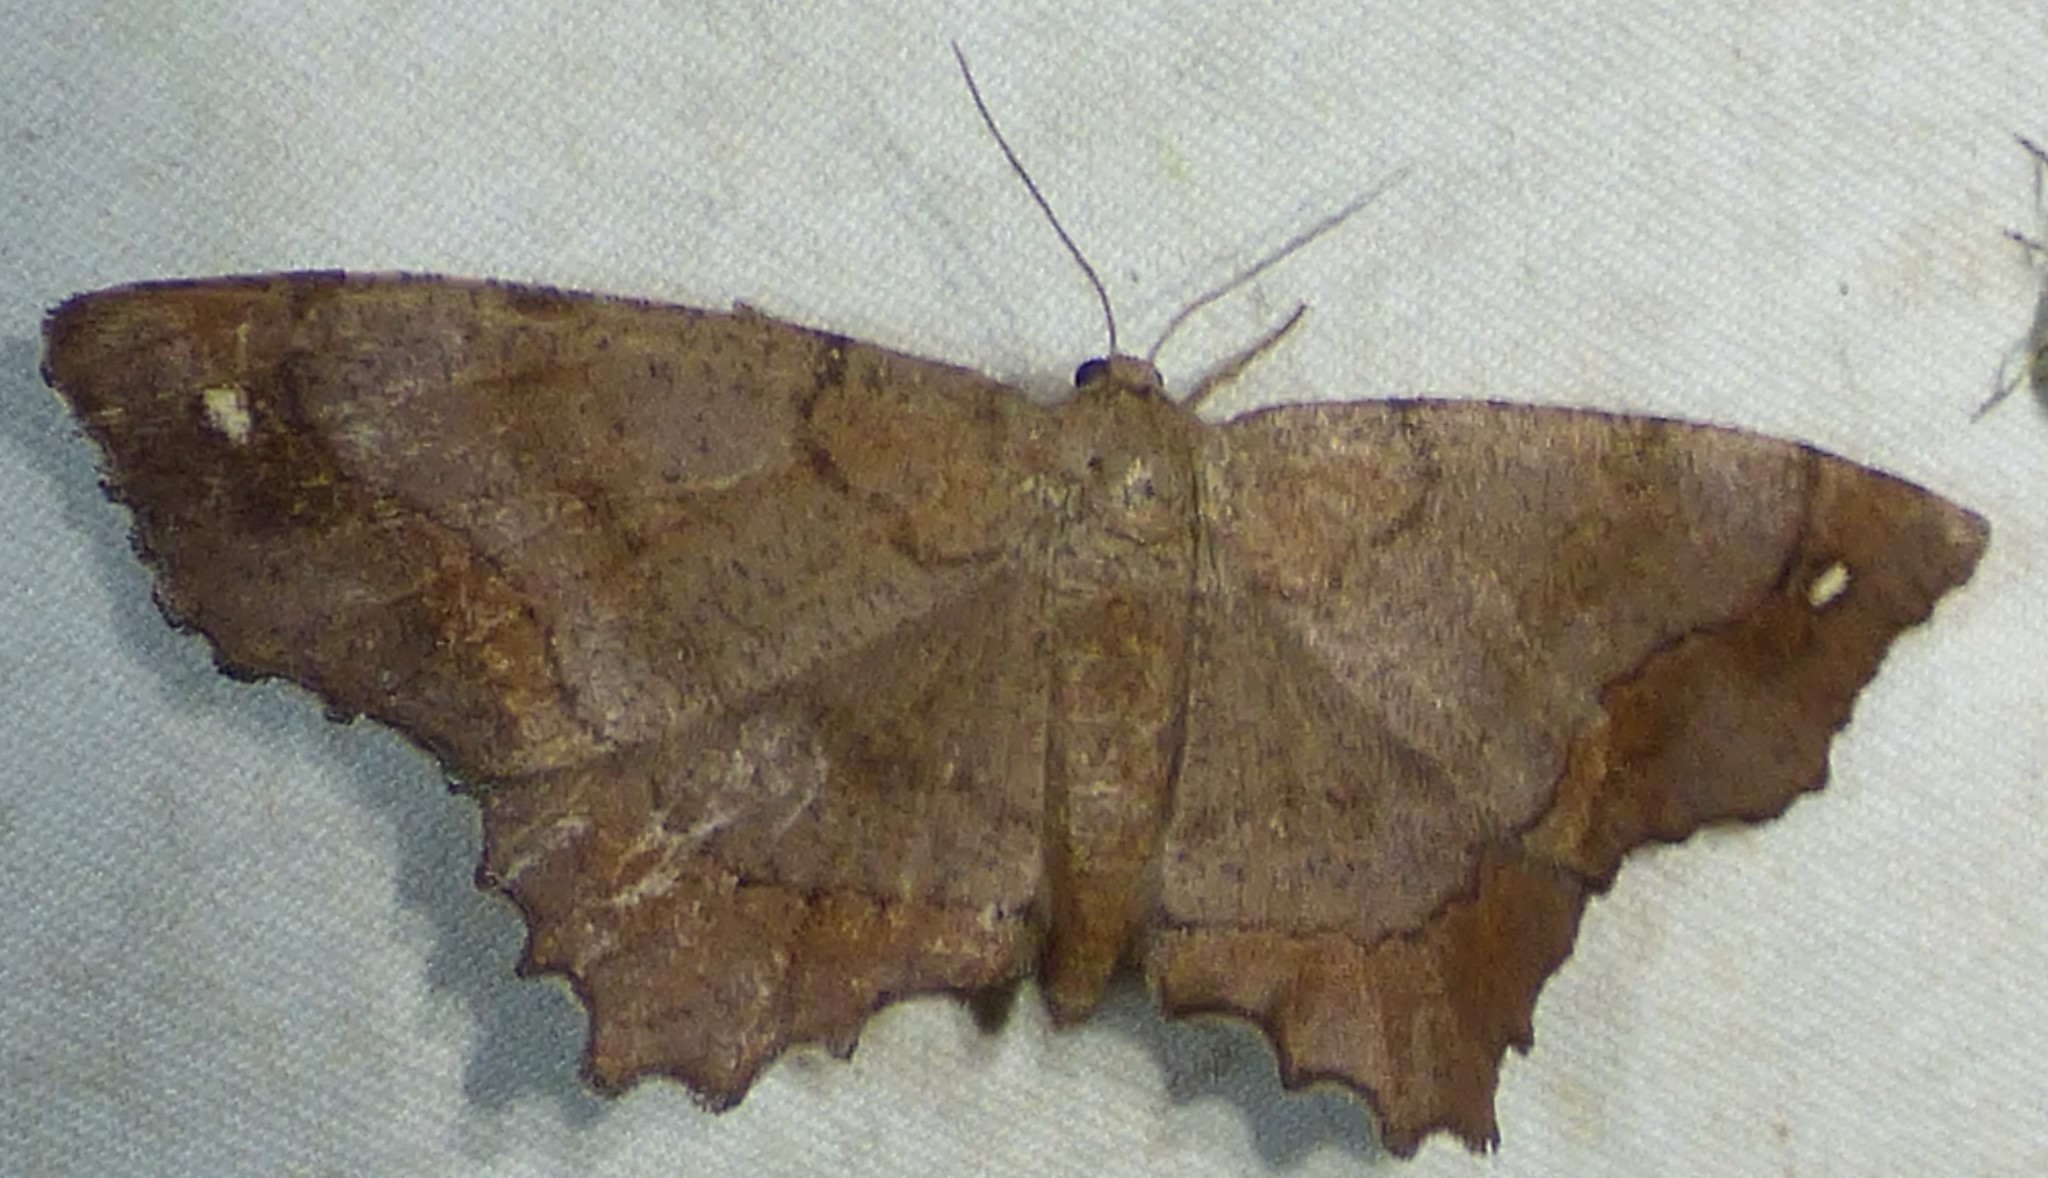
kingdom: Animalia
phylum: Arthropoda
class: Insecta
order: Lepidoptera
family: Geometridae
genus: Hypagyrtis
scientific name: Hypagyrtis esther
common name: Esther moth
